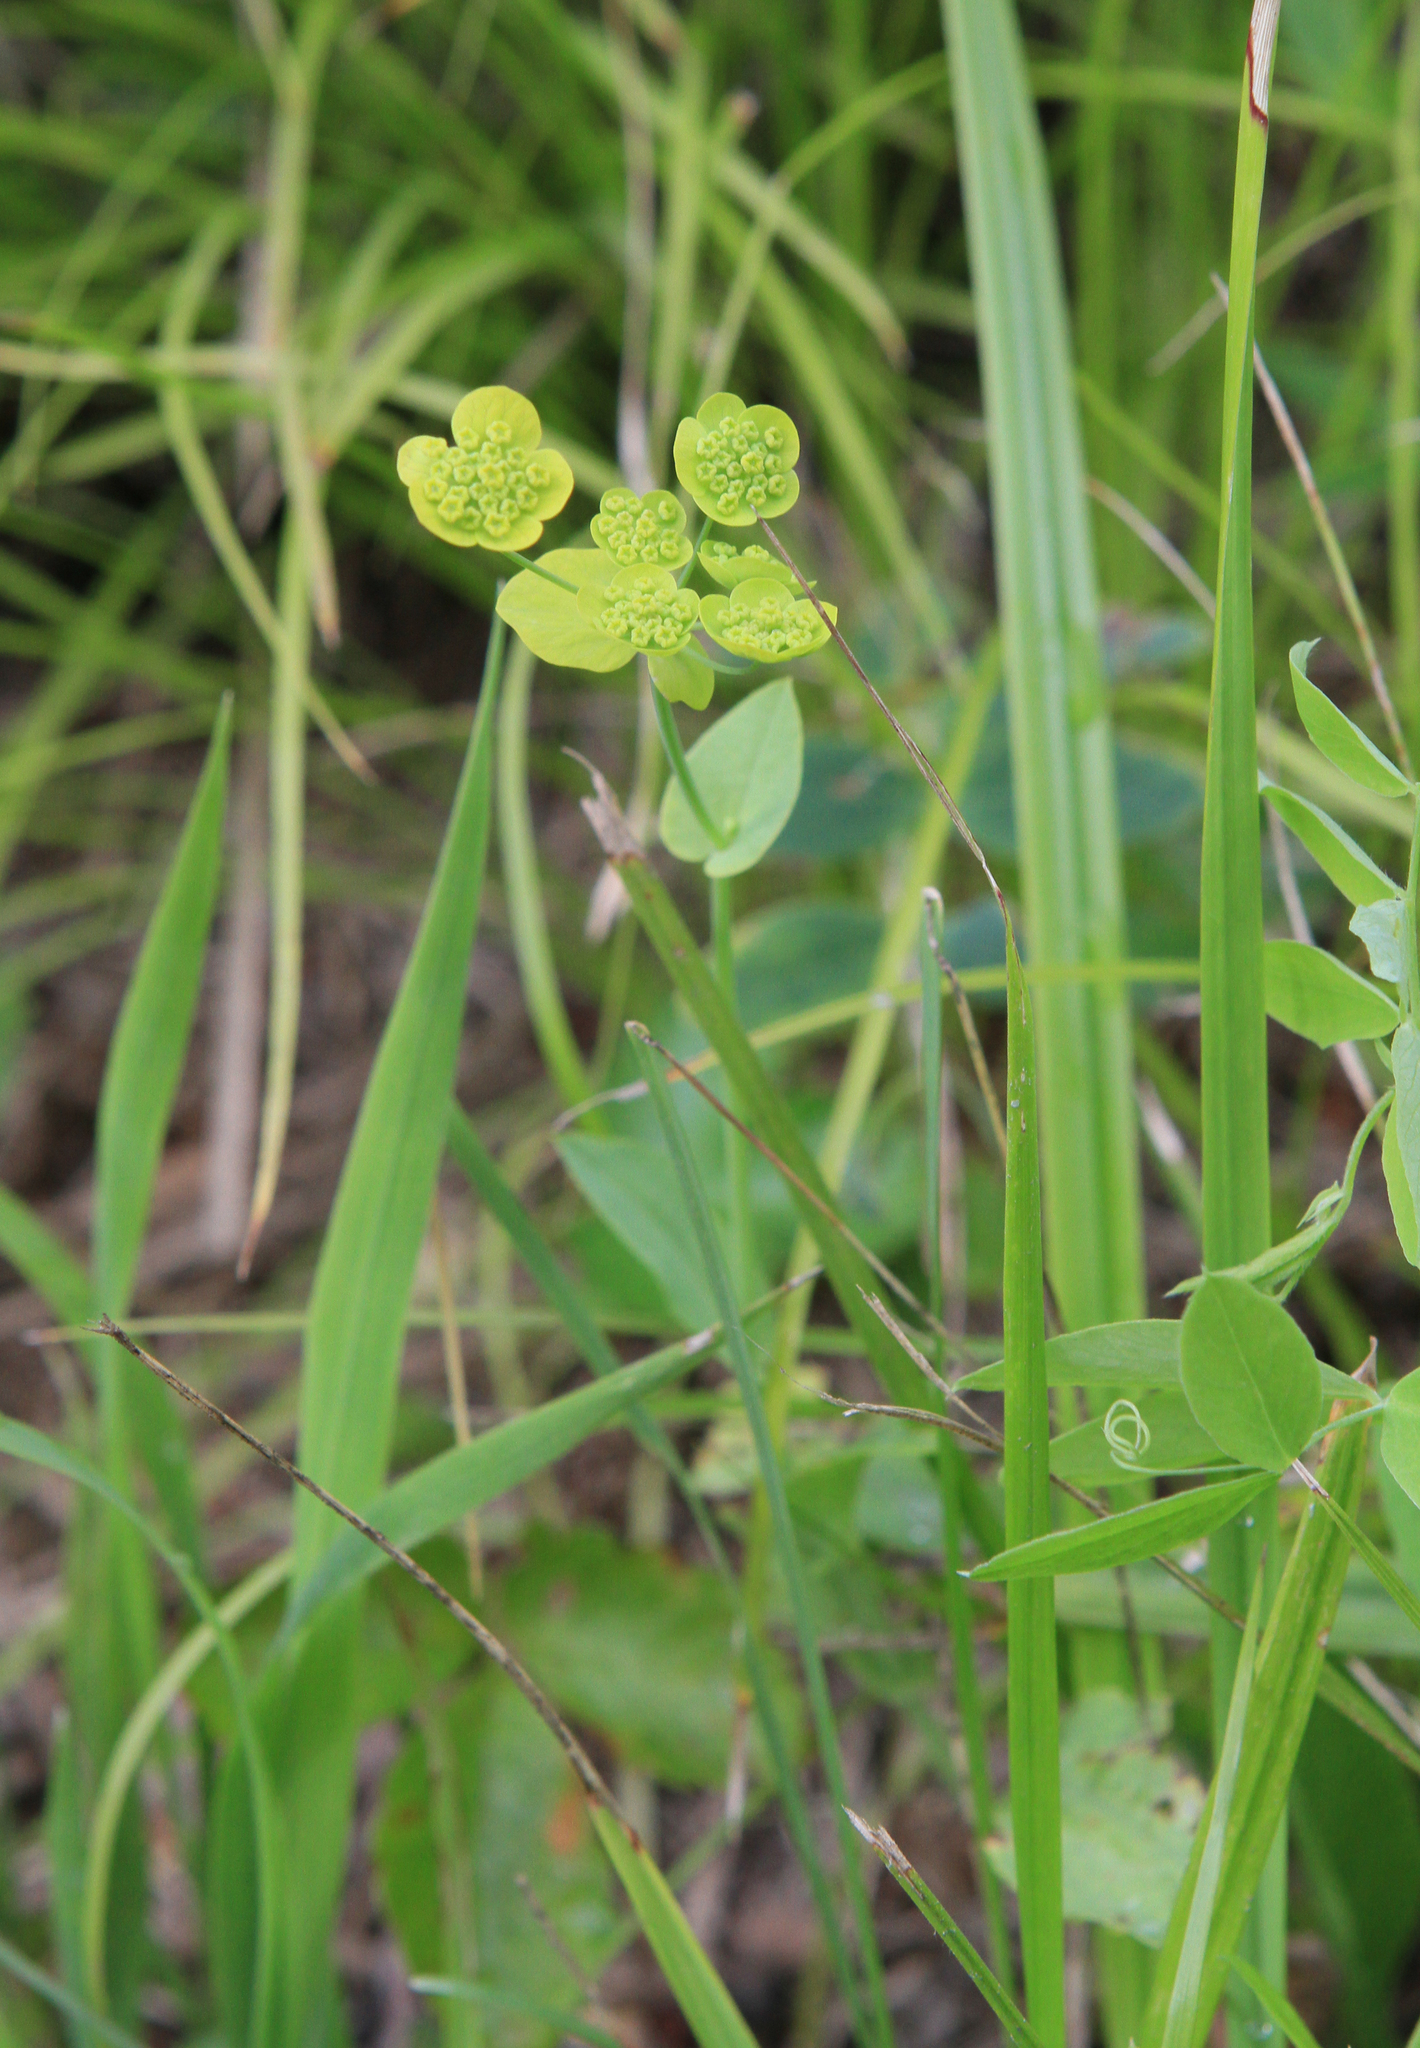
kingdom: Plantae
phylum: Tracheophyta
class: Magnoliopsida
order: Apiales
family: Apiaceae
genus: Bupleurum
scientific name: Bupleurum aureum
